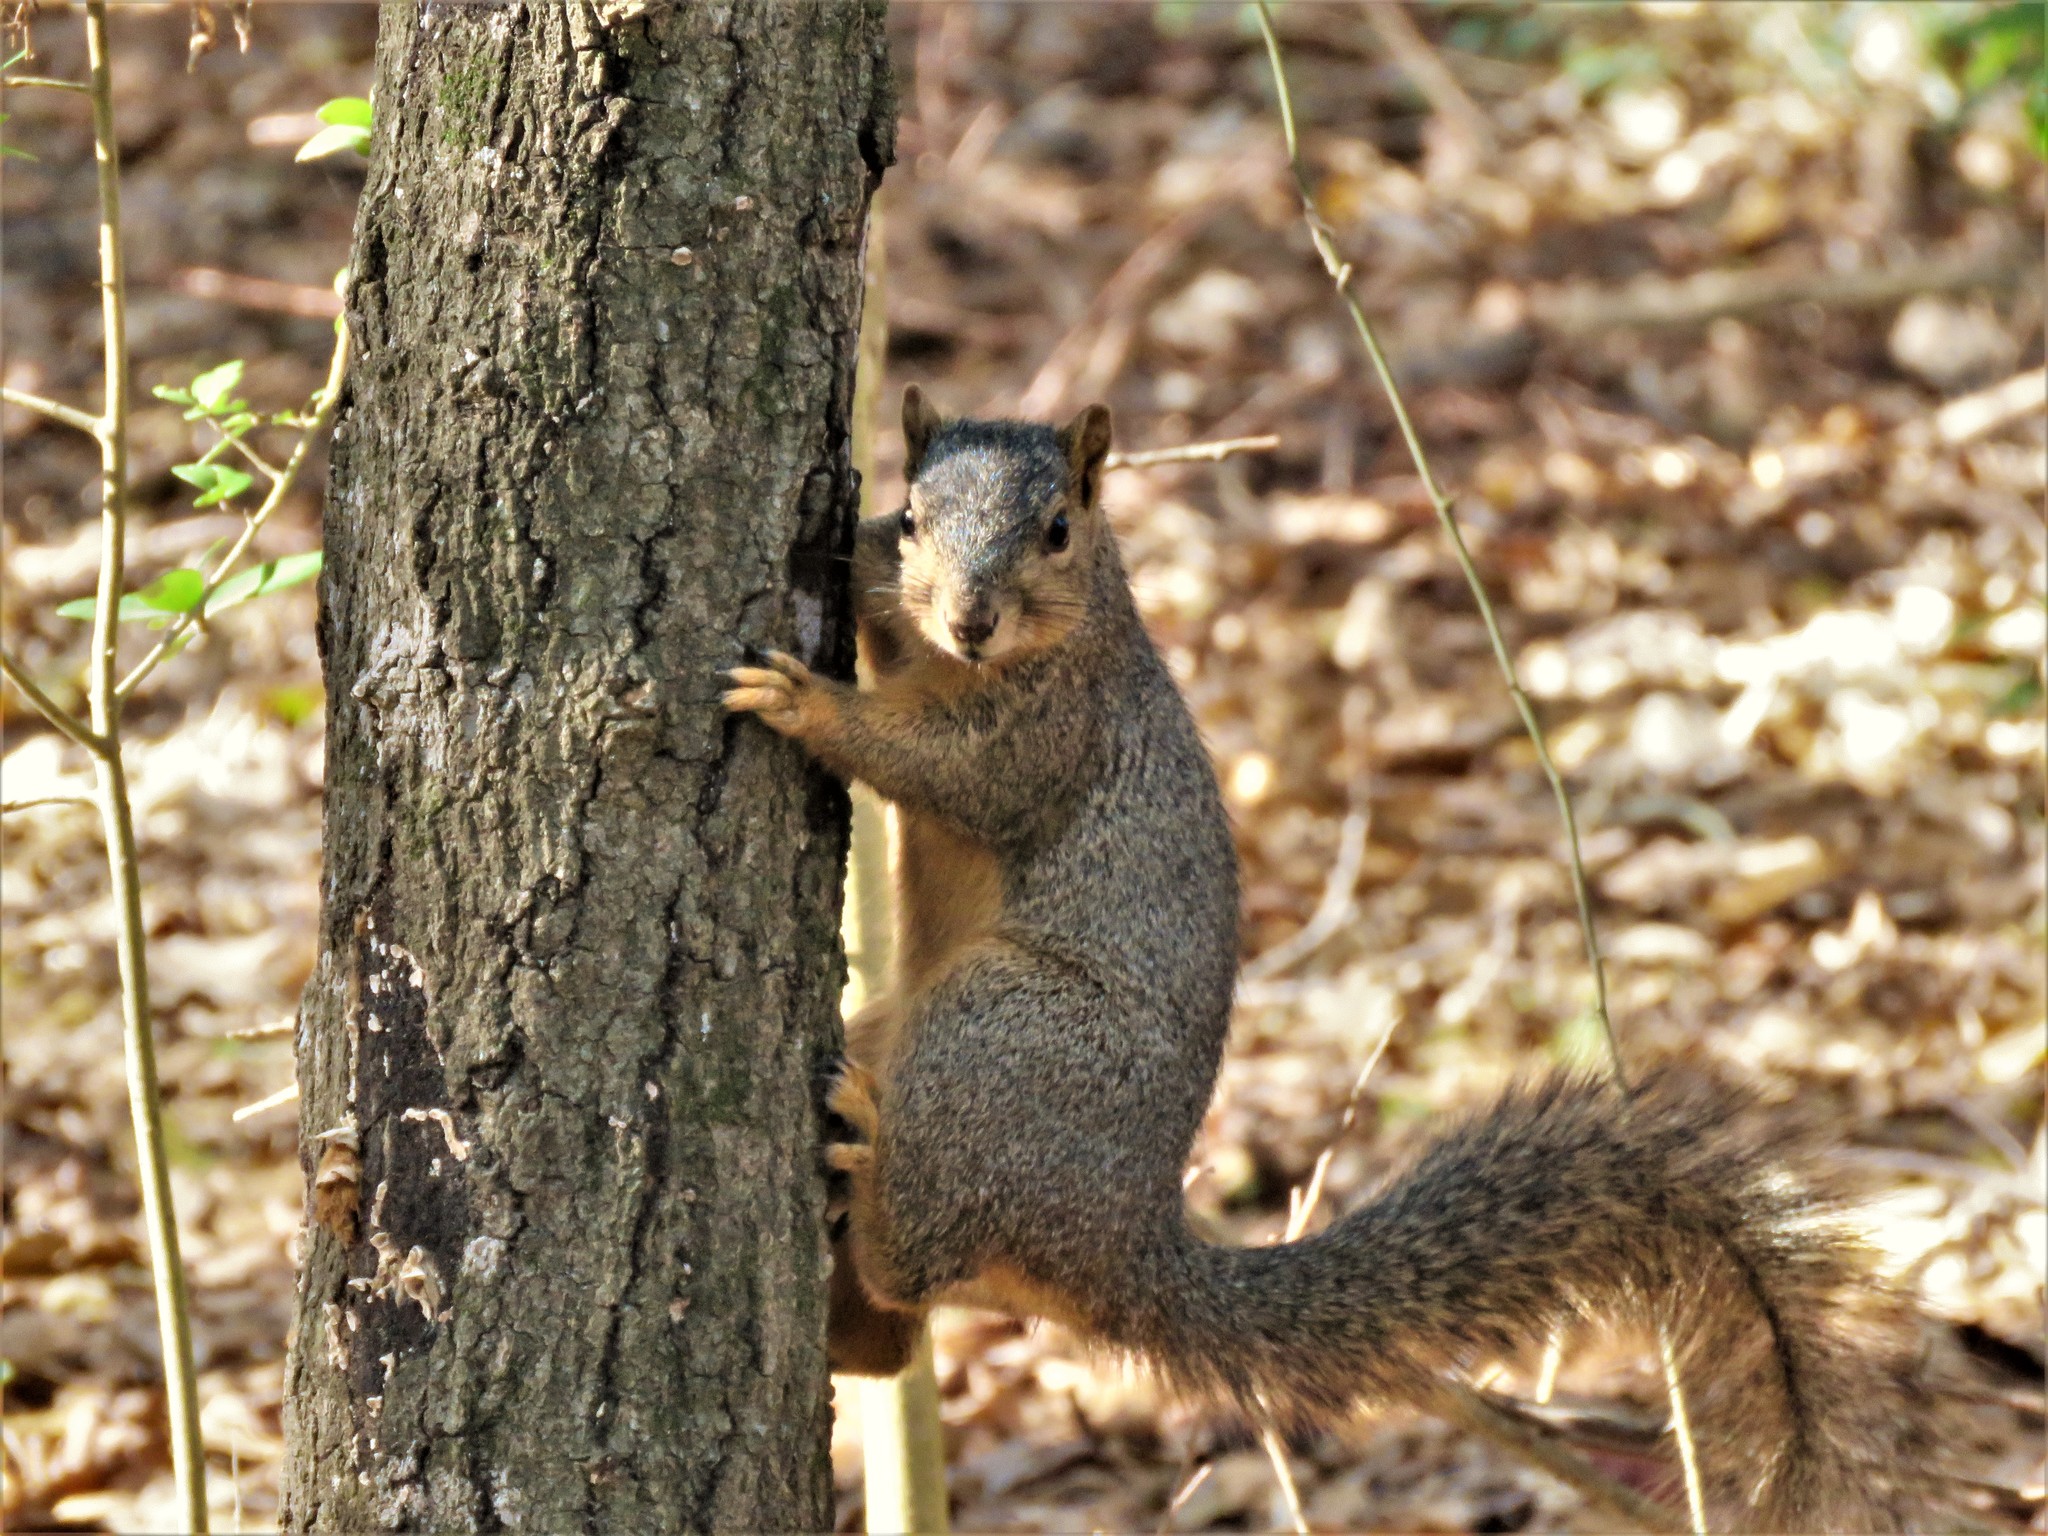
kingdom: Animalia
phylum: Chordata
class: Mammalia
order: Rodentia
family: Sciuridae
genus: Sciurus
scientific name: Sciurus niger
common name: Fox squirrel
